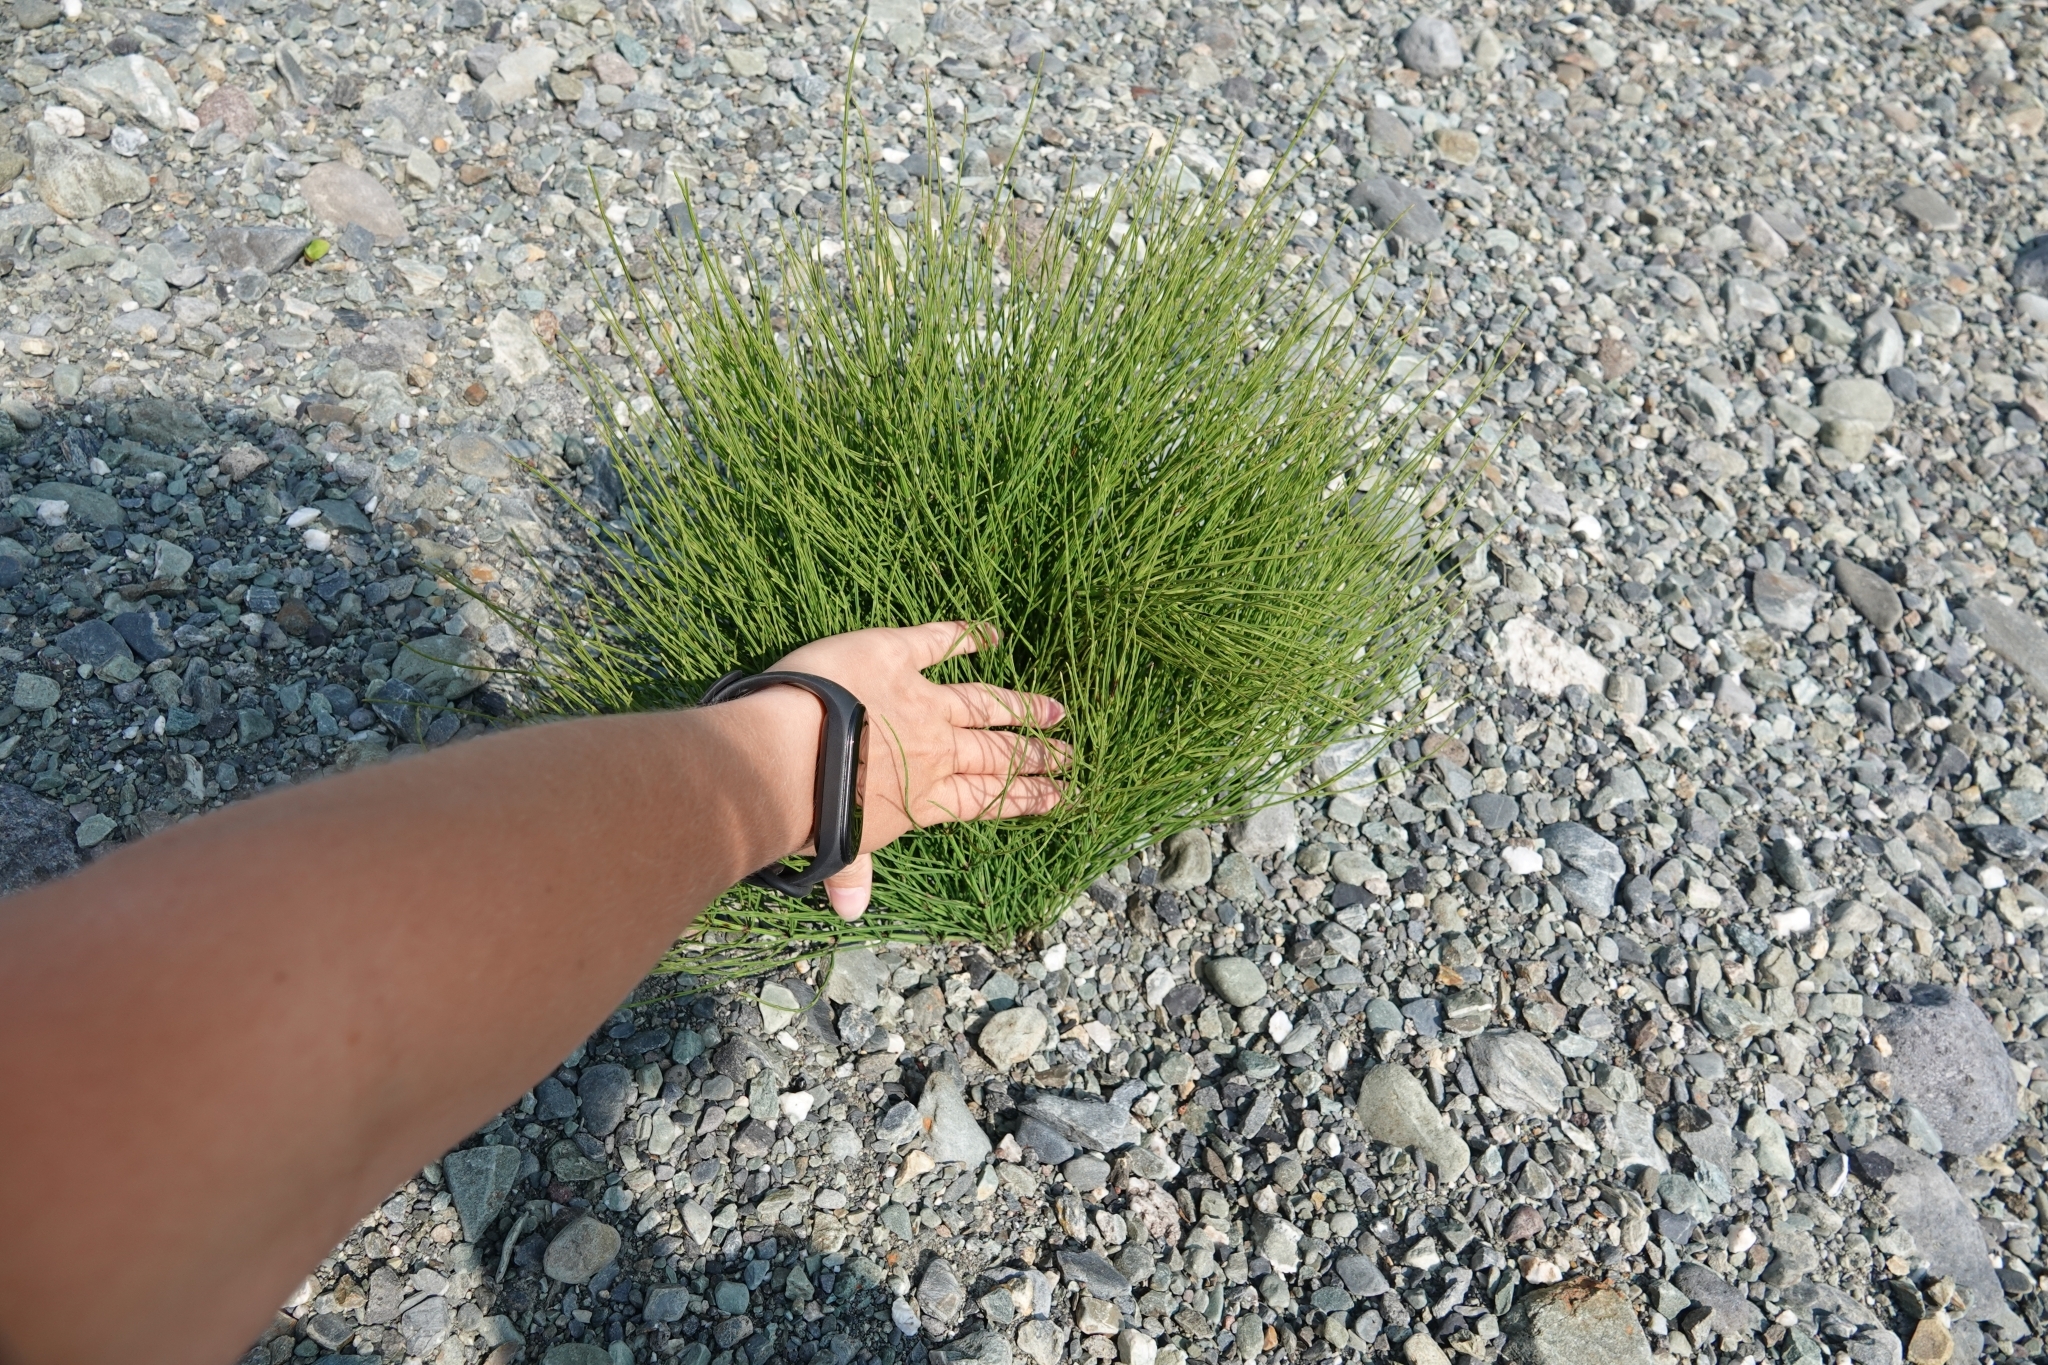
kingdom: Plantae
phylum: Tracheophyta
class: Polypodiopsida
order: Equisetales
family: Equisetaceae
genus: Equisetum
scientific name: Equisetum arvense
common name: Field horsetail
